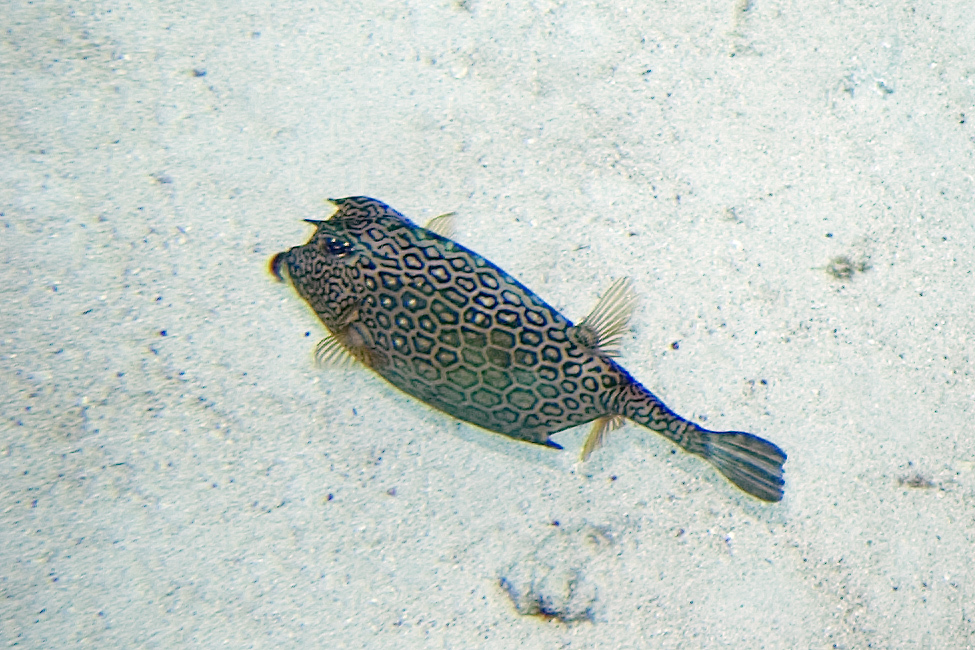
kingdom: Animalia
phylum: Chordata
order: Tetraodontiformes
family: Ostraciidae
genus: Acanthostracion
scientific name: Acanthostracion polygonius
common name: Honeycomb cowfish
